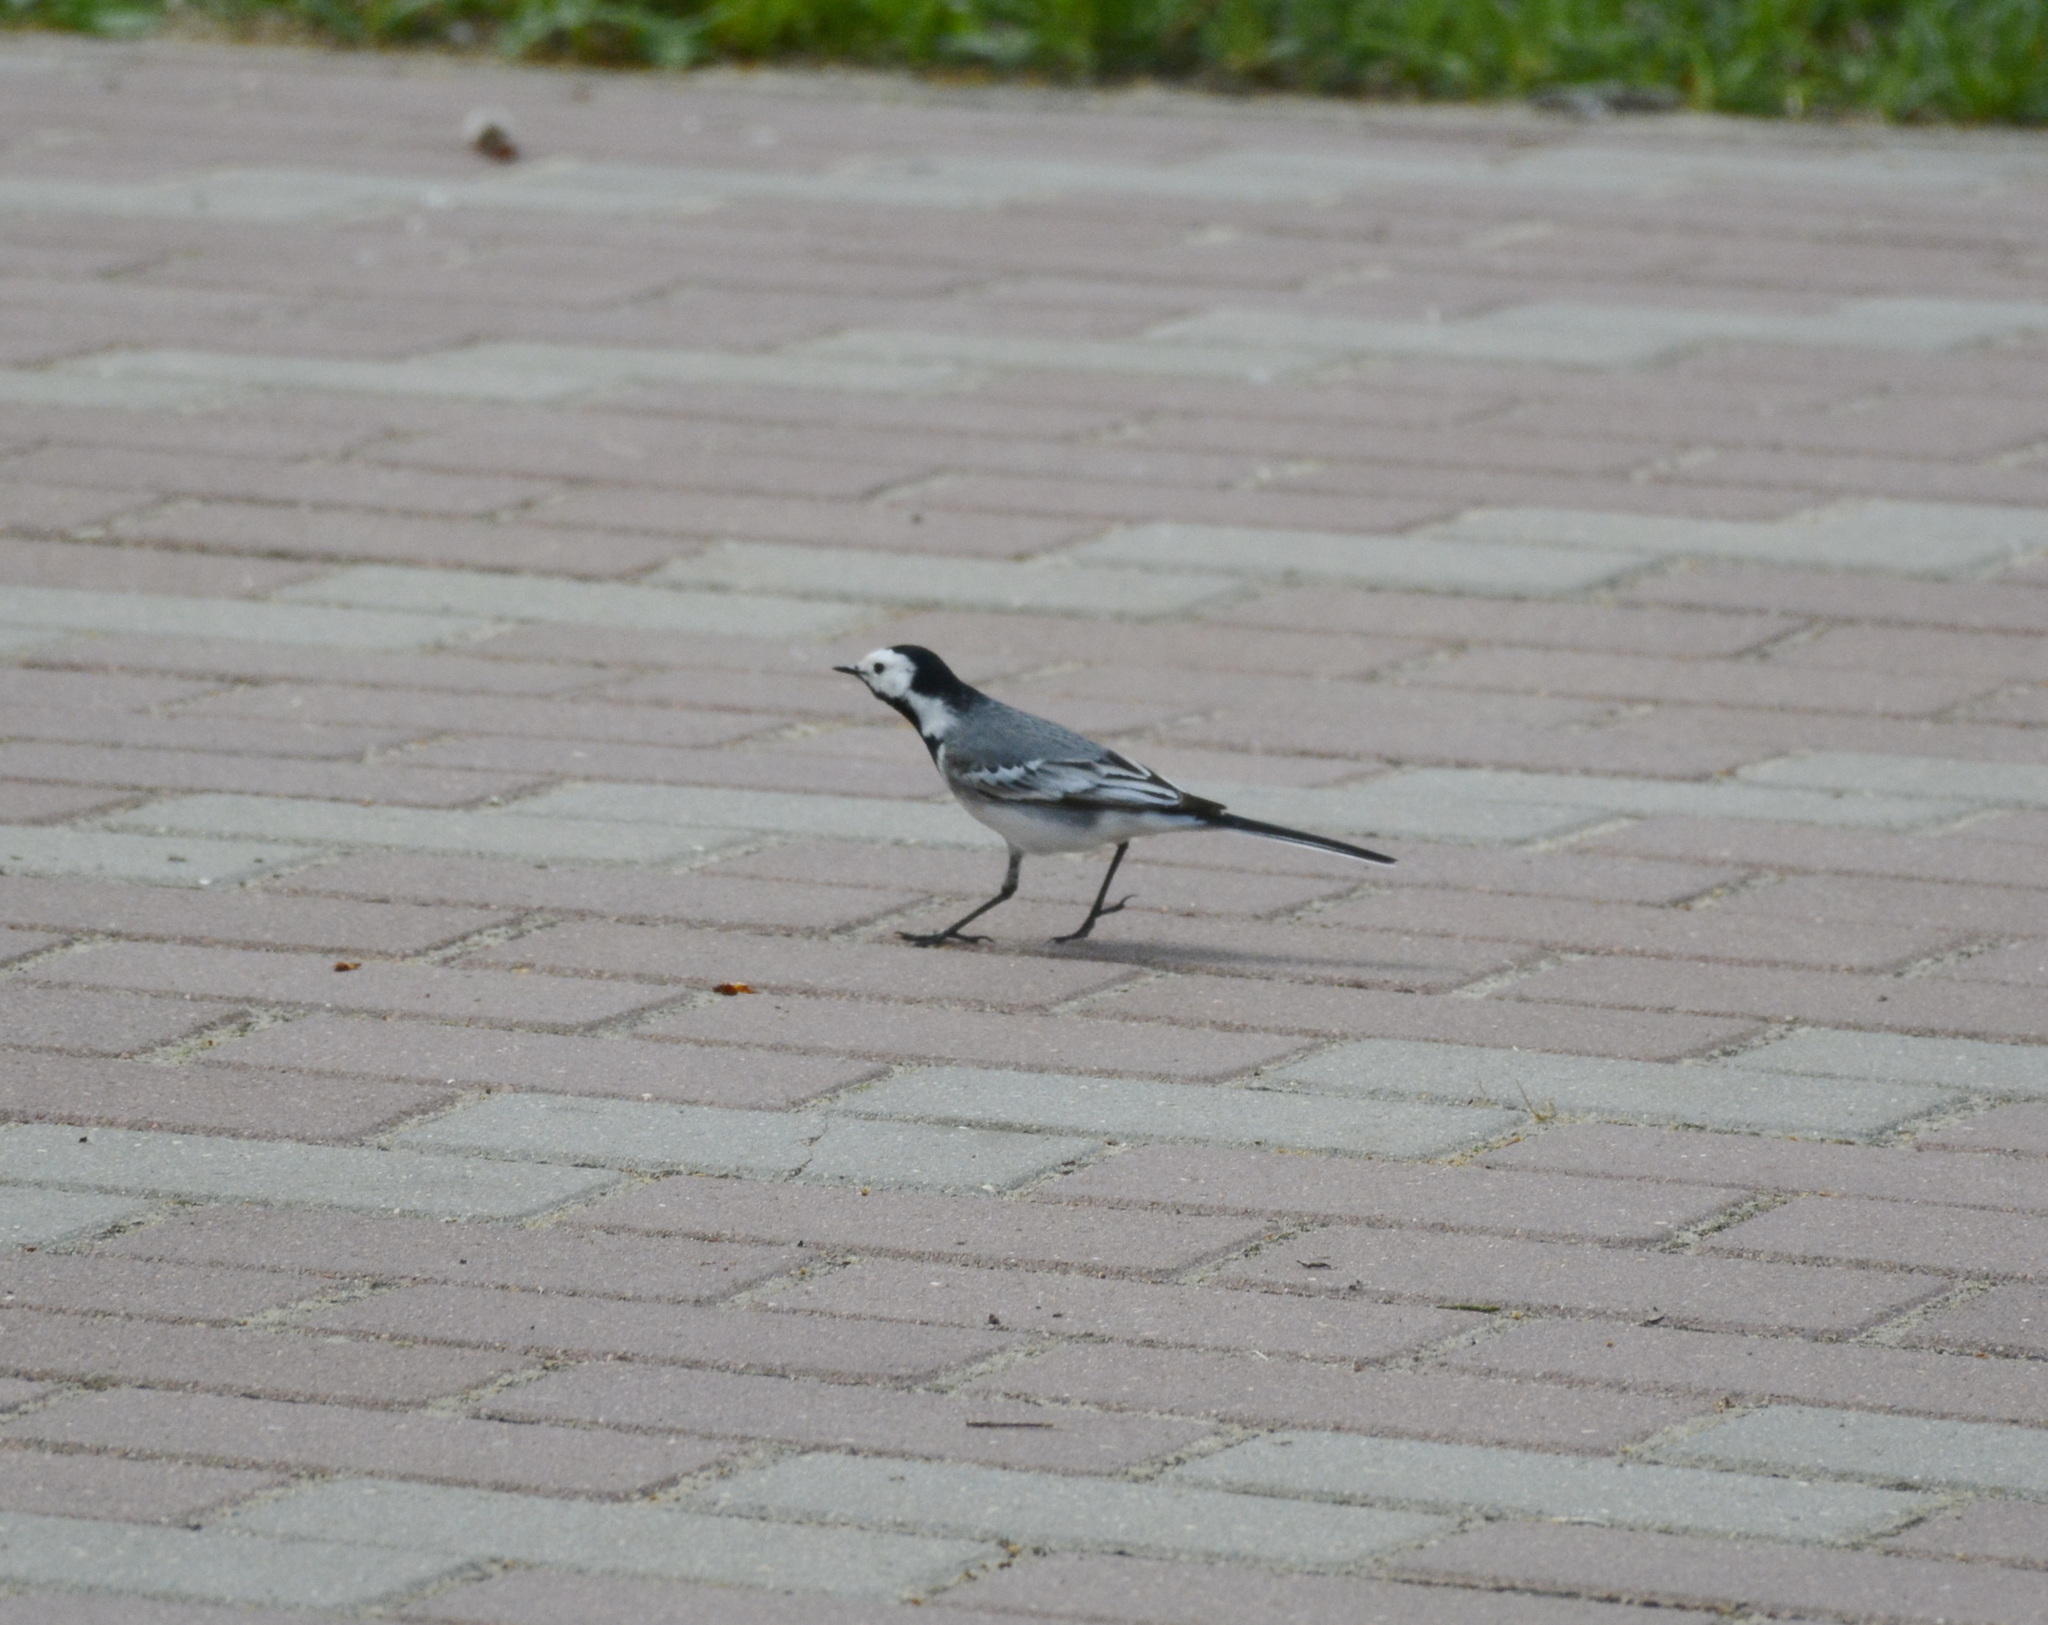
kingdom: Animalia
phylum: Chordata
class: Aves
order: Passeriformes
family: Motacillidae
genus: Motacilla
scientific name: Motacilla alba
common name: White wagtail
